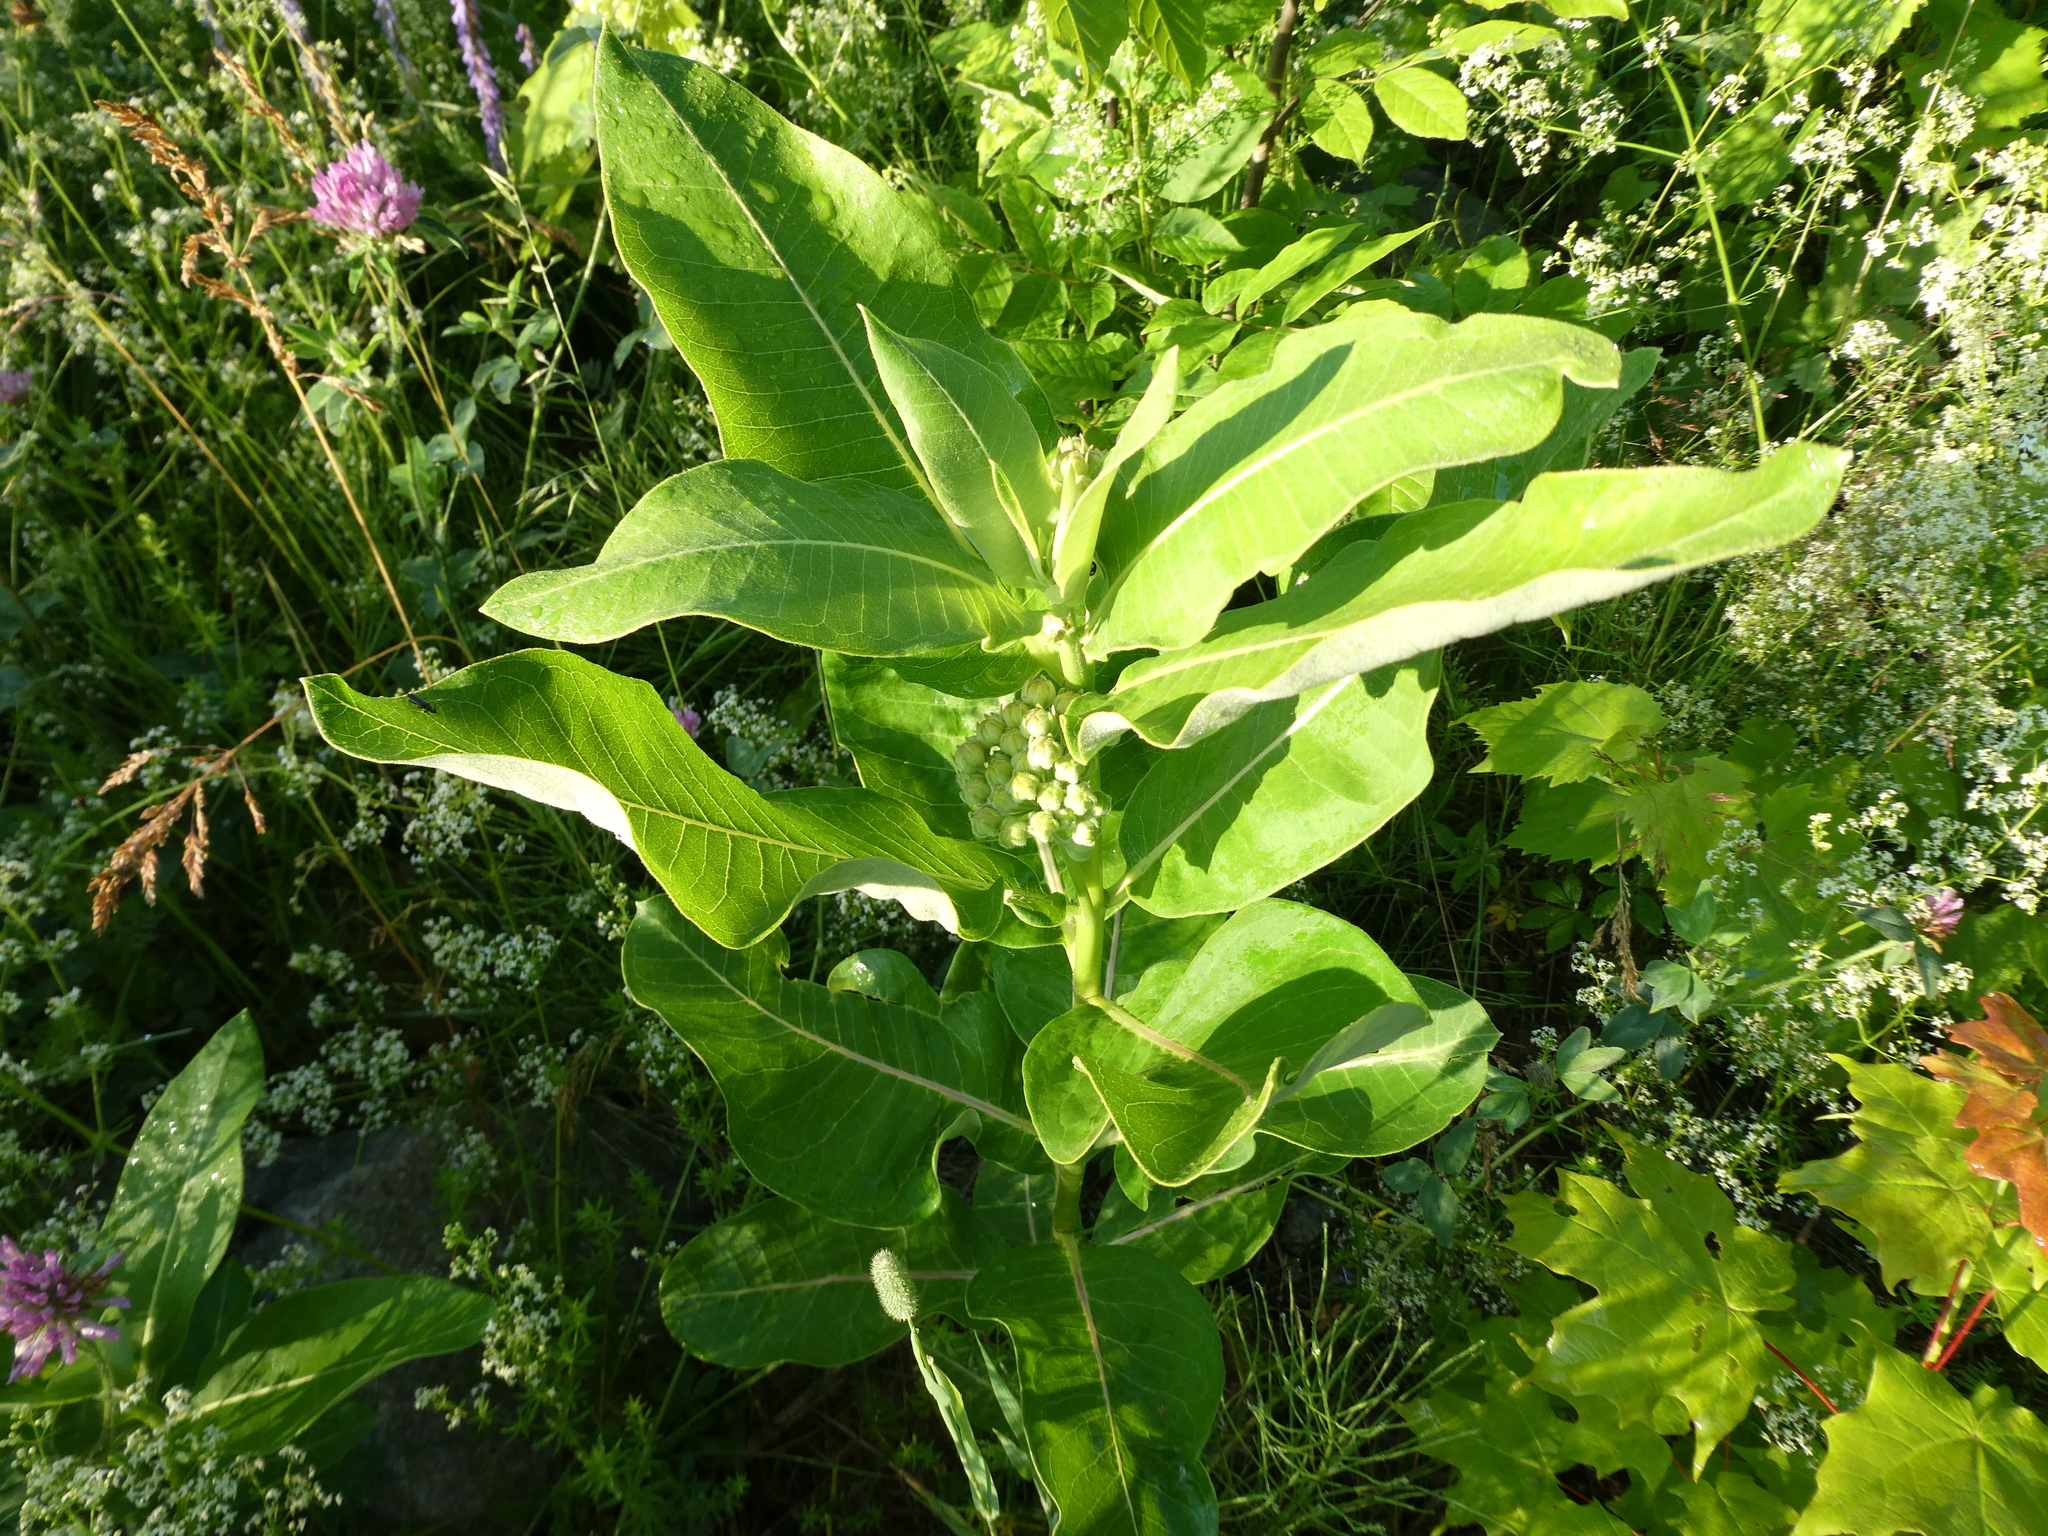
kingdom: Plantae
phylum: Tracheophyta
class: Magnoliopsida
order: Gentianales
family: Apocynaceae
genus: Asclepias
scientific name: Asclepias syriaca
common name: Common milkweed
